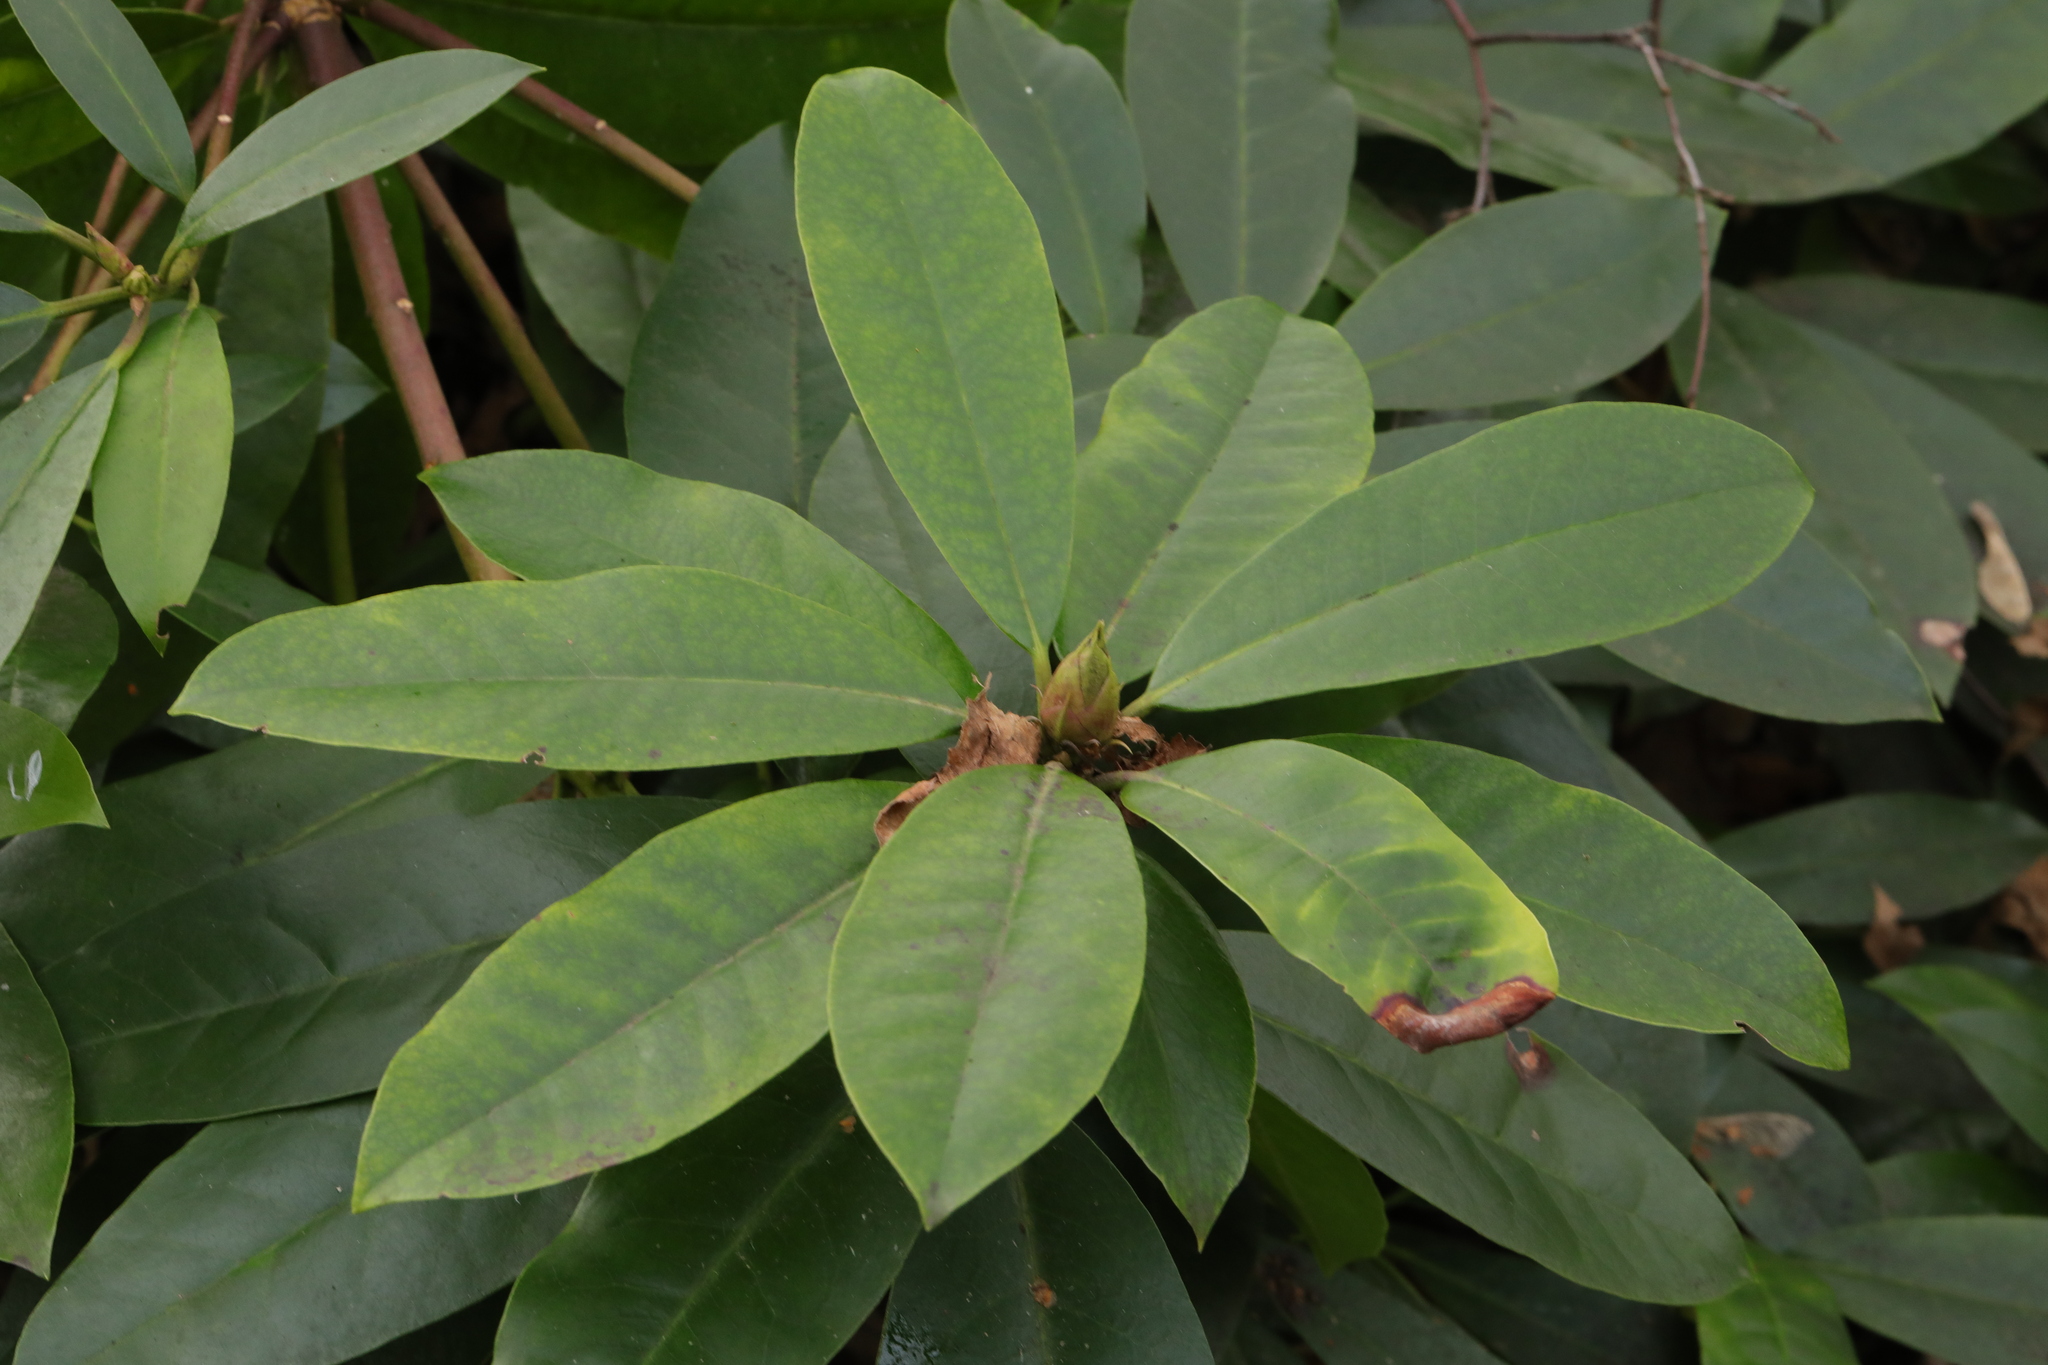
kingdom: Plantae
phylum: Tracheophyta
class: Magnoliopsida
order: Ericales
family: Ericaceae
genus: Rhododendron
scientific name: Rhododendron ponticum
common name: Rhododendron
